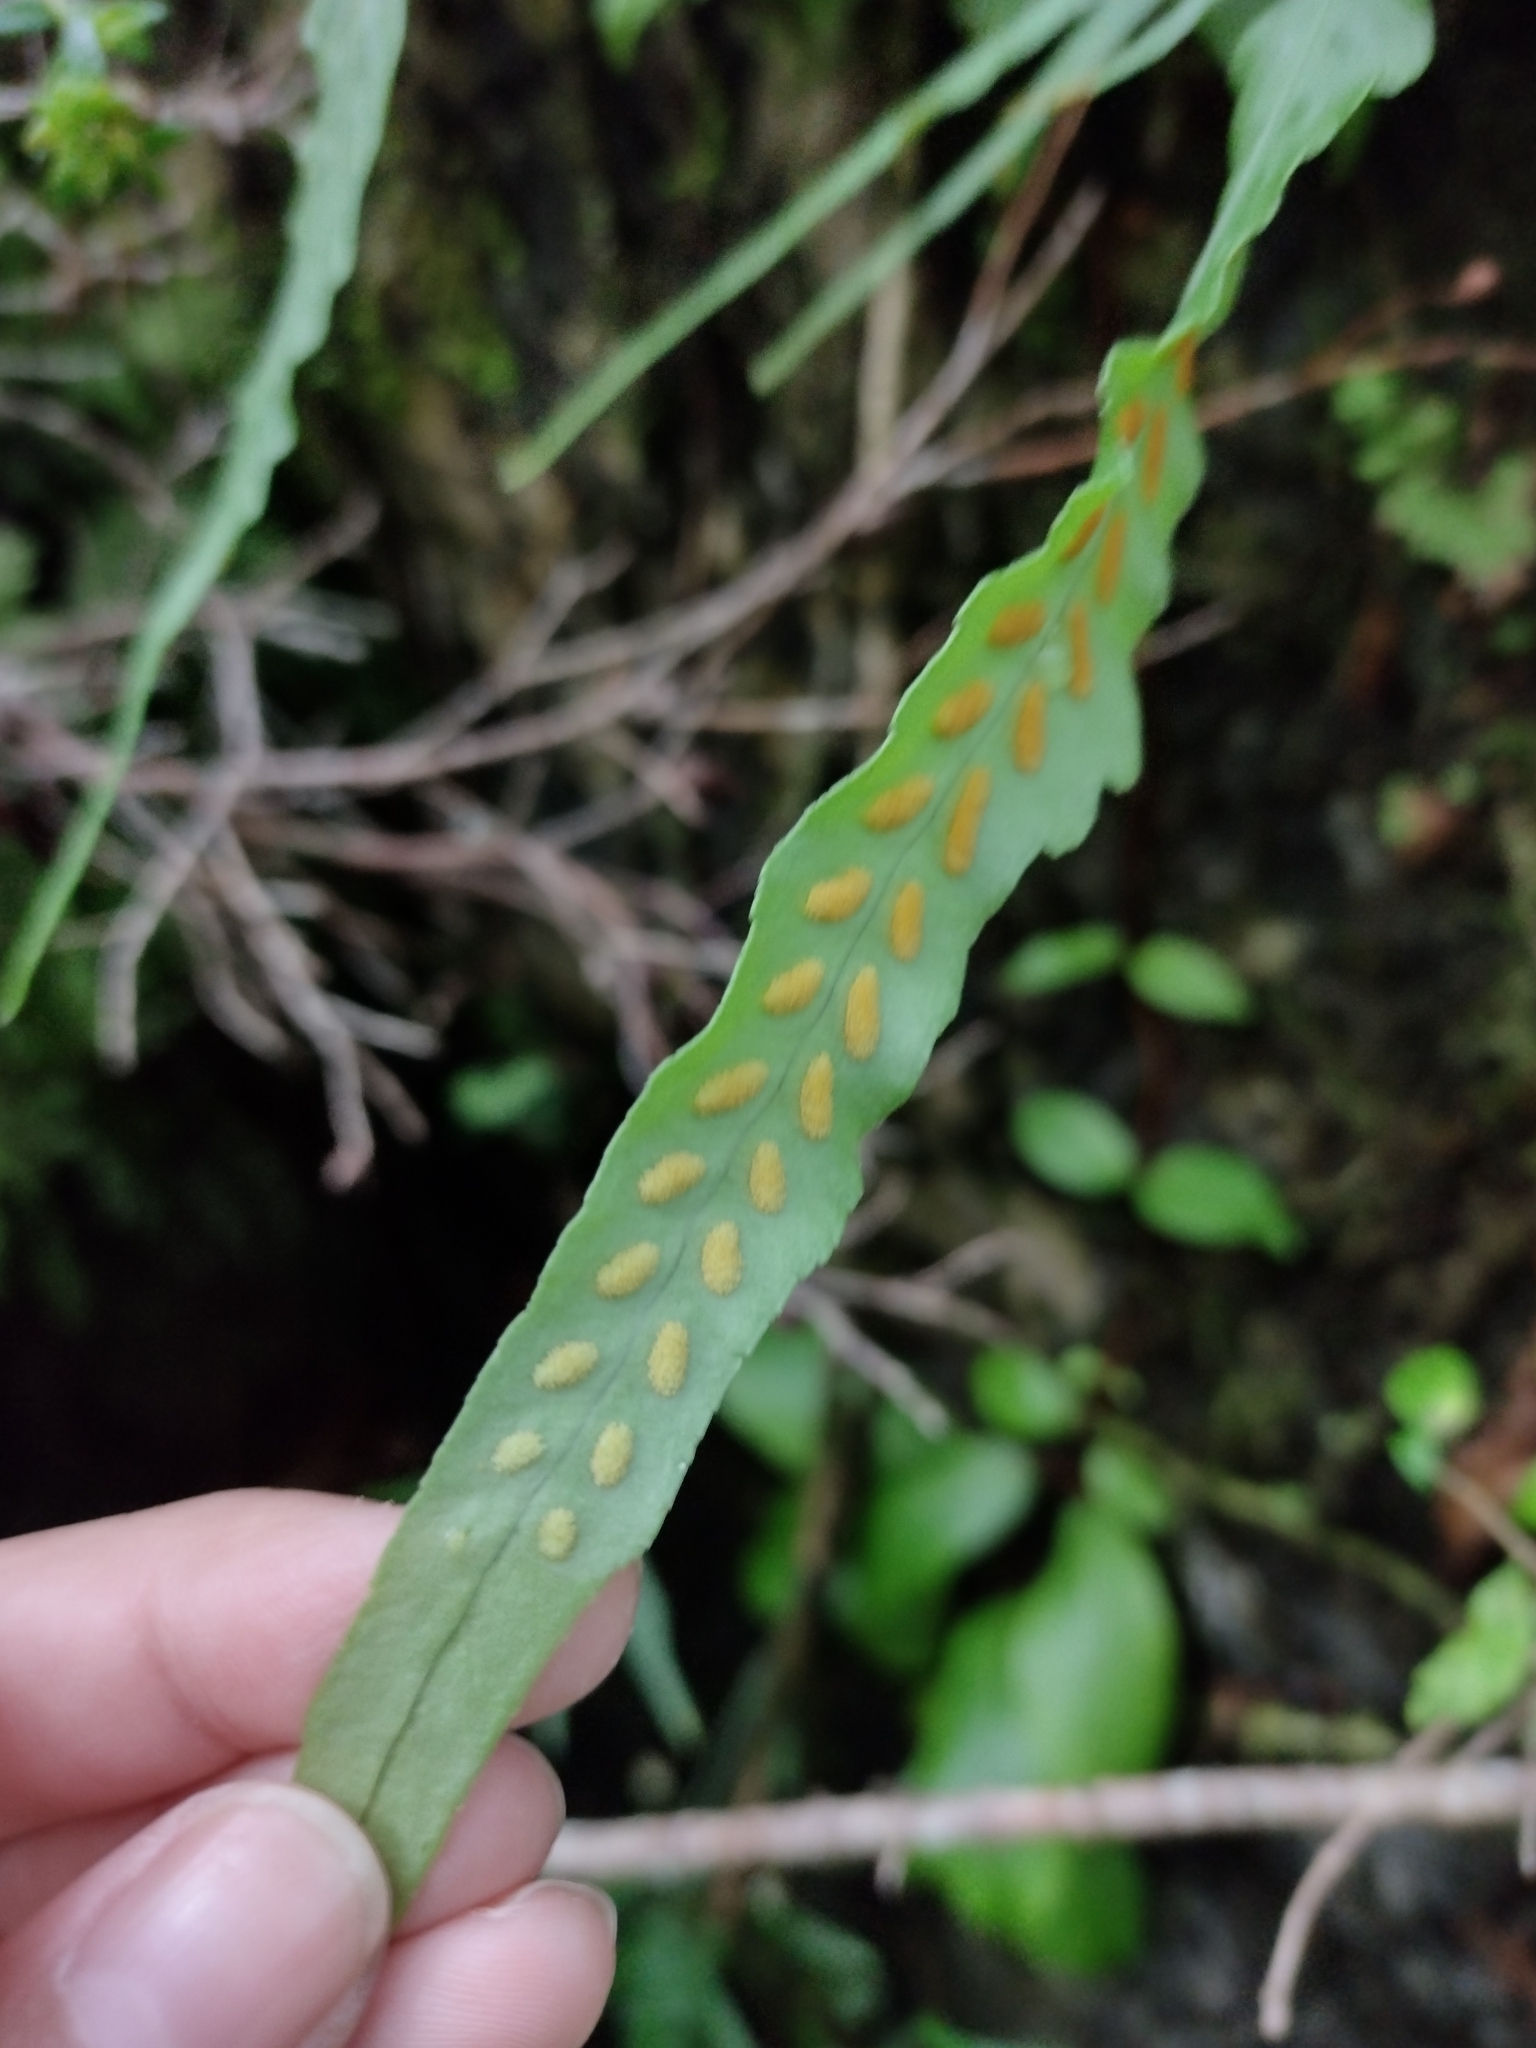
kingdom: Plantae
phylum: Tracheophyta
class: Polypodiopsida
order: Polypodiales
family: Polypodiaceae
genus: Synammia
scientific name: Synammia feuillei
